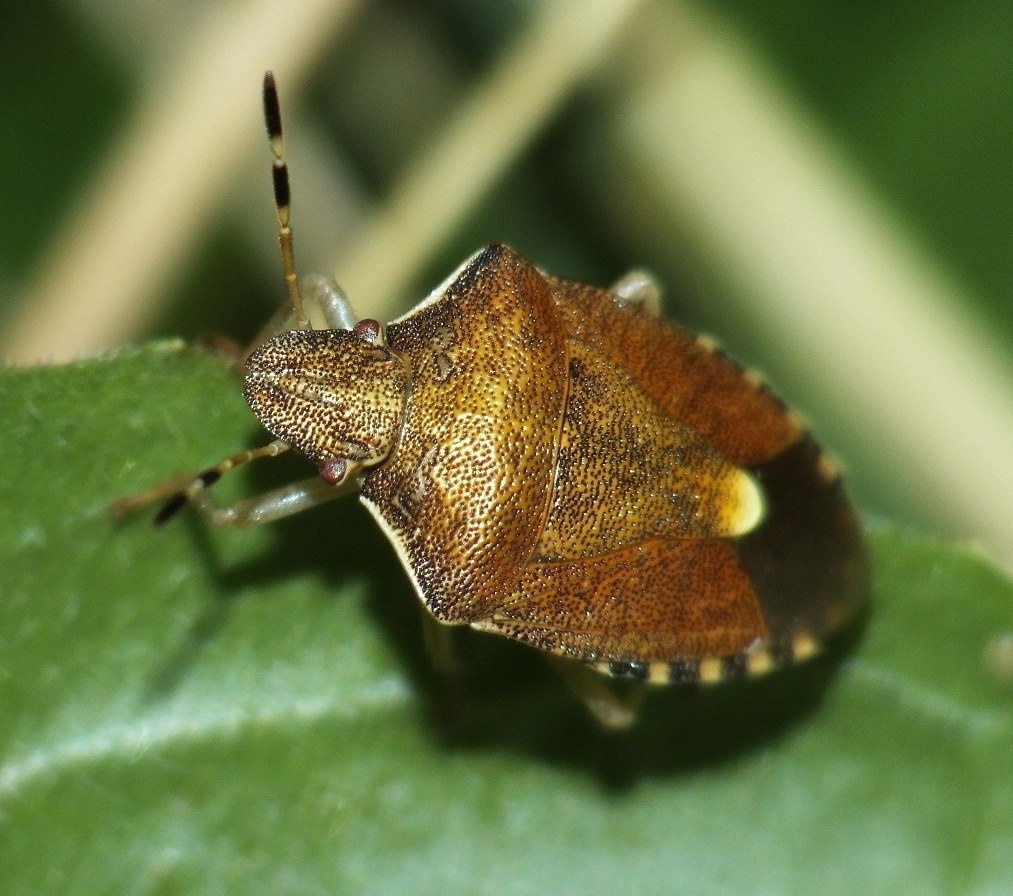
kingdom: Animalia
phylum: Arthropoda
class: Insecta
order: Hemiptera
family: Pentatomidae
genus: Holcostethus
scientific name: Holcostethus strictus
